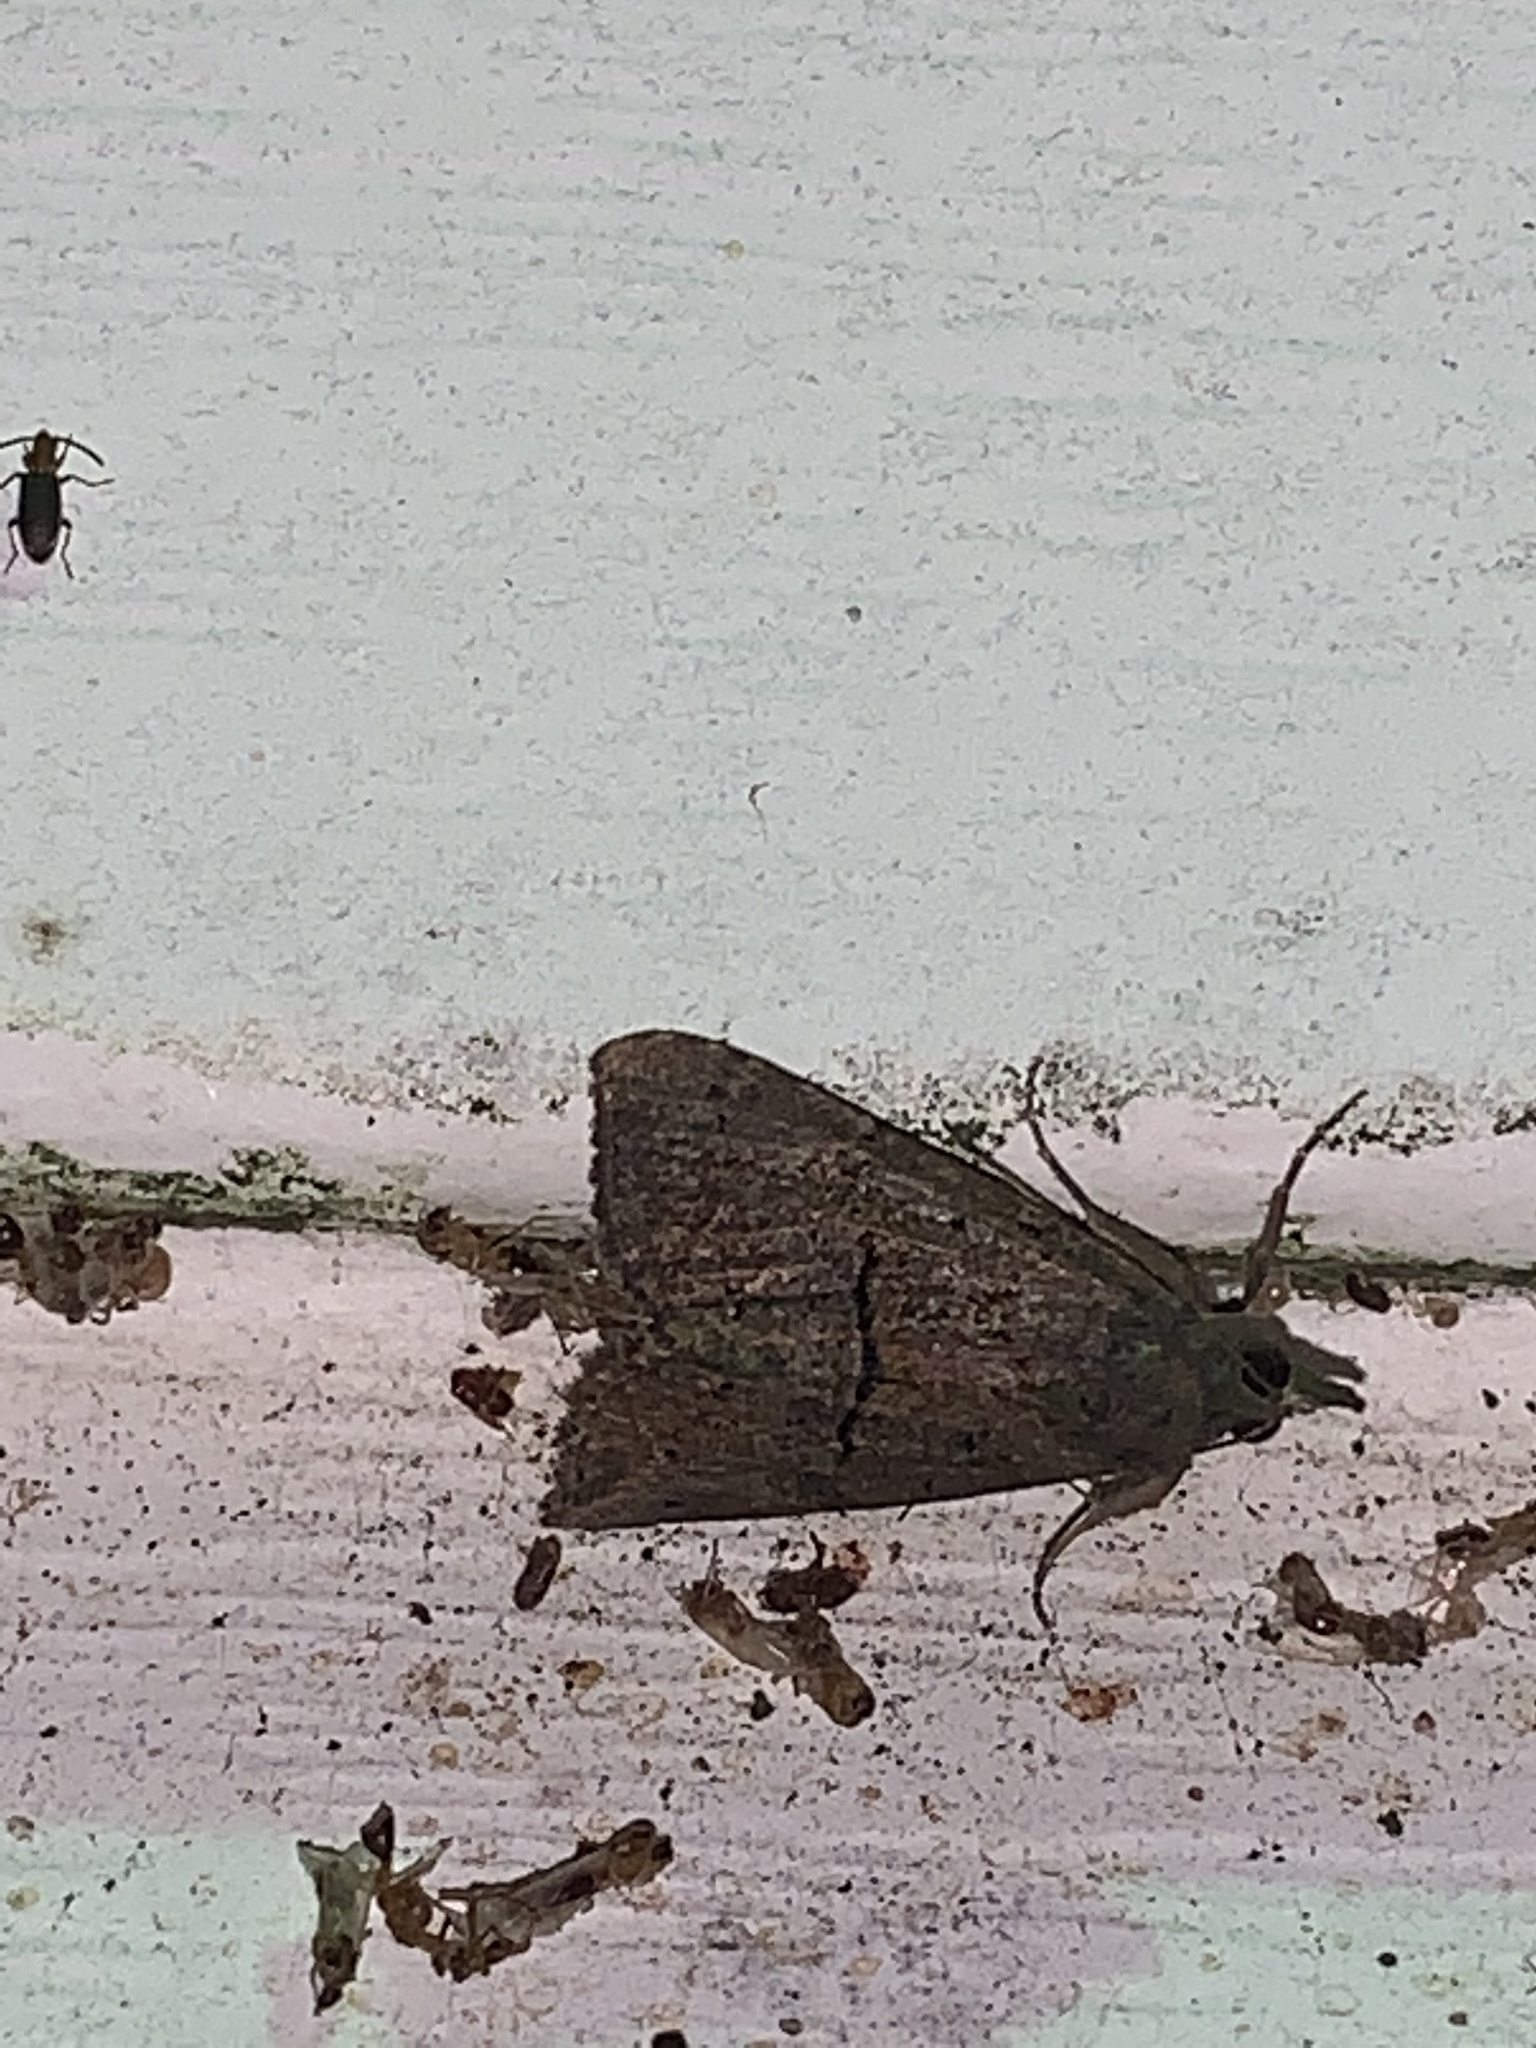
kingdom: Animalia
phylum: Arthropoda
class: Insecta
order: Lepidoptera
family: Erebidae
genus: Hypena
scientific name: Hypena scabra
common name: Green cloverworm
